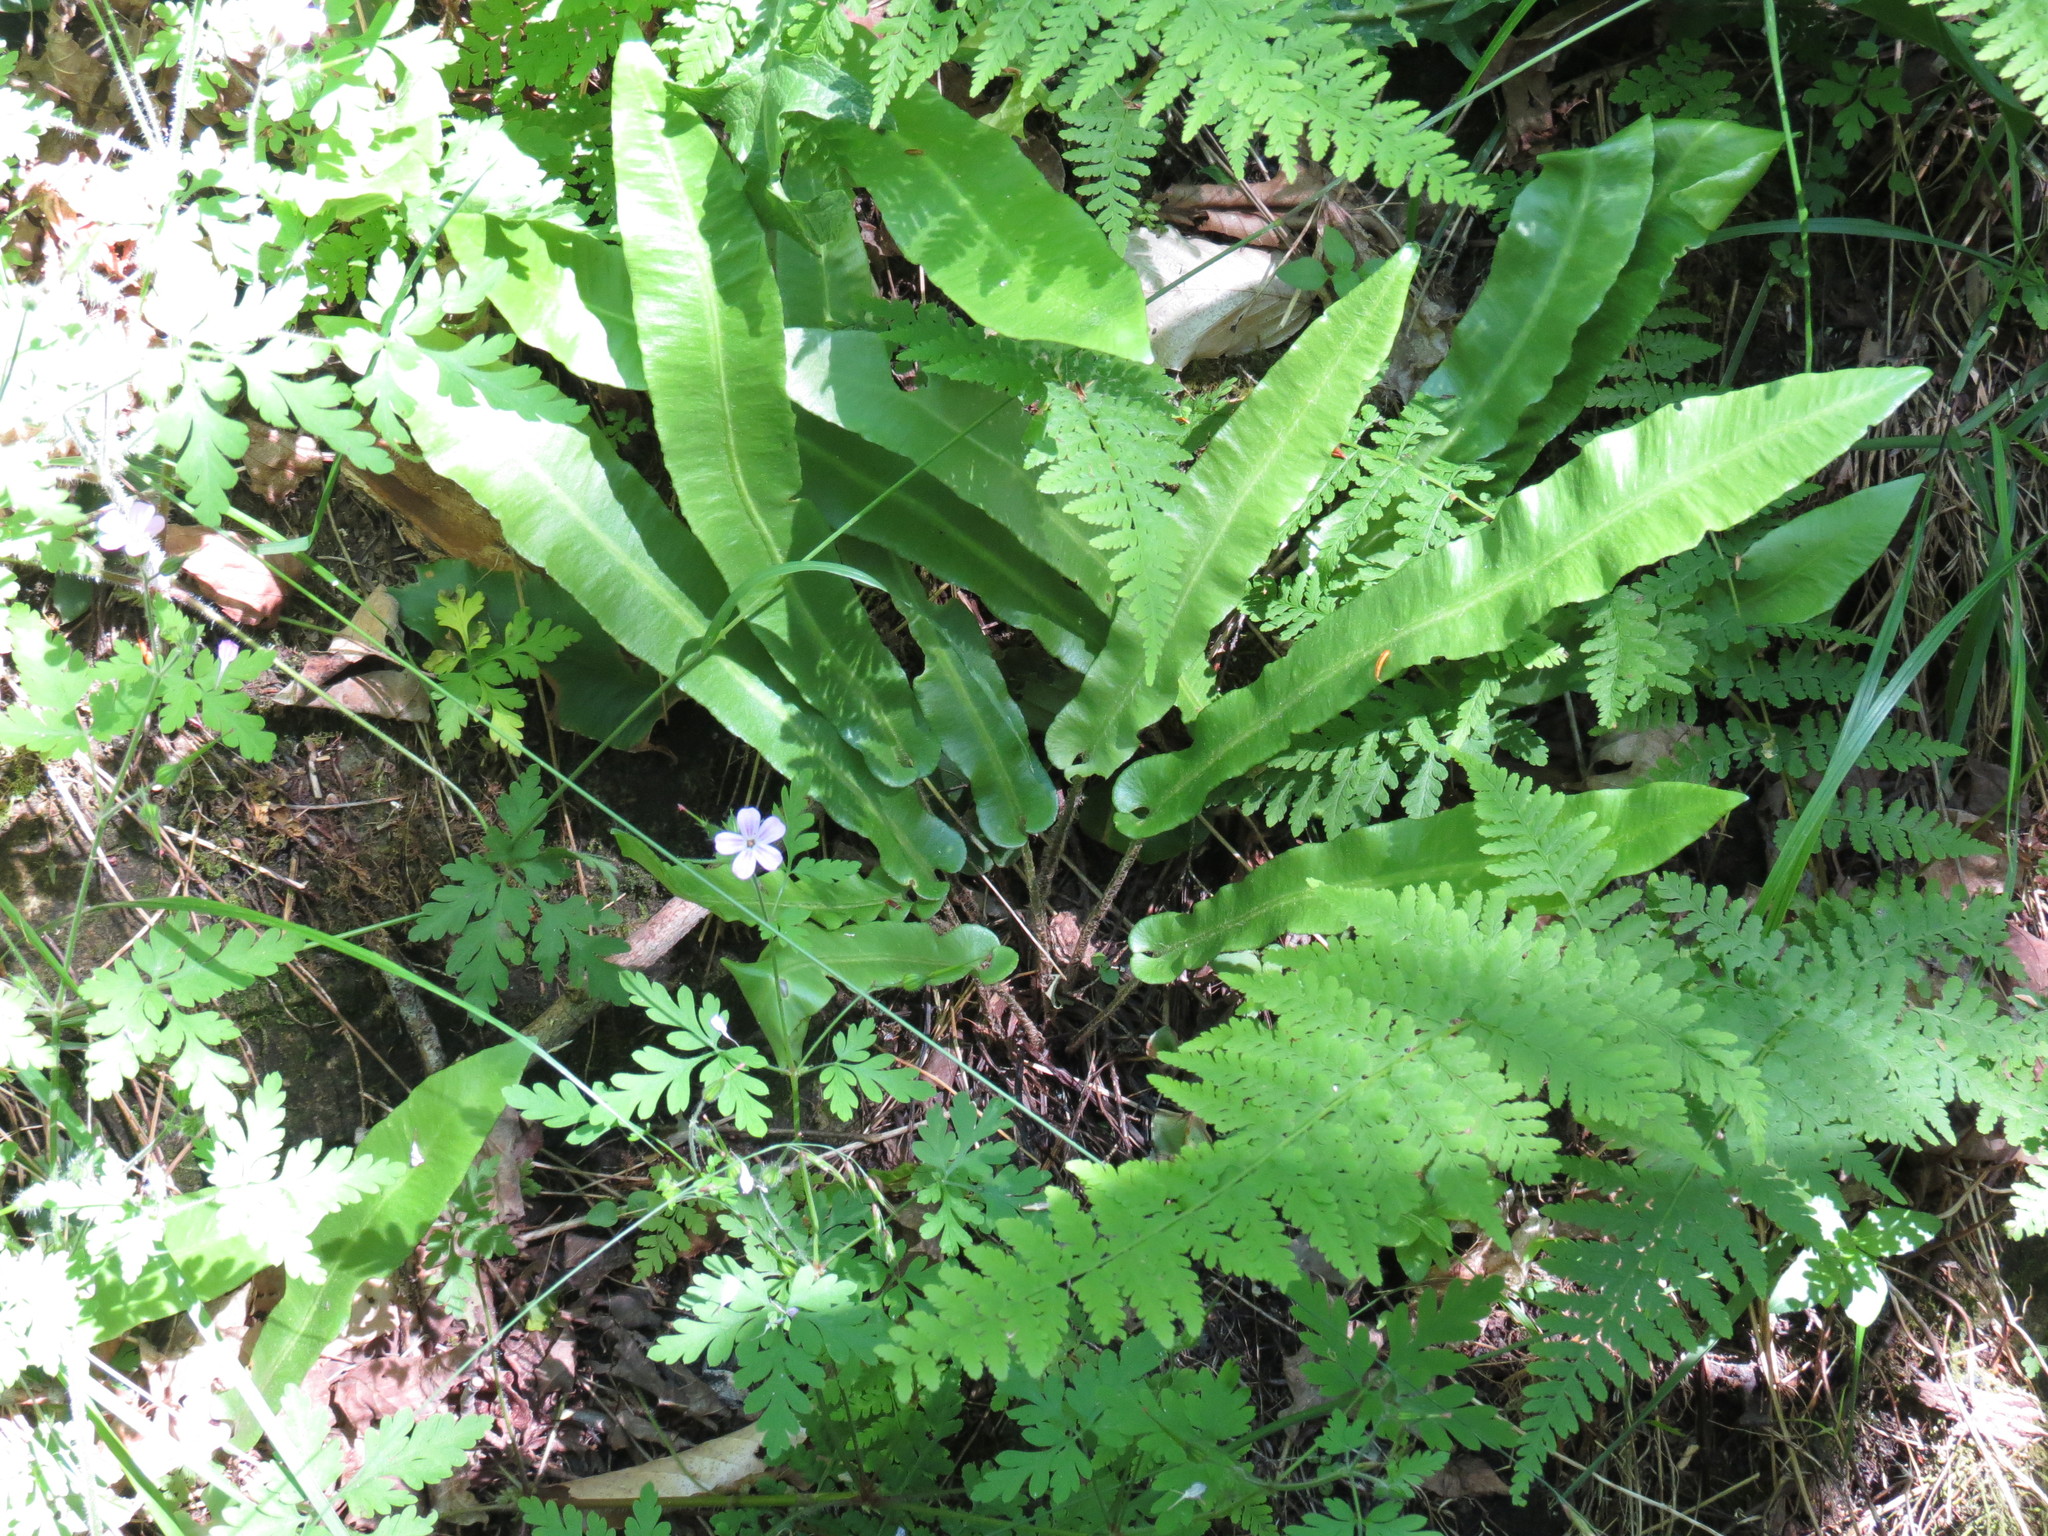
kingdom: Plantae
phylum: Tracheophyta
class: Polypodiopsida
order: Polypodiales
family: Aspleniaceae
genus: Asplenium
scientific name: Asplenium scolopendrium
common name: Hart's-tongue fern
